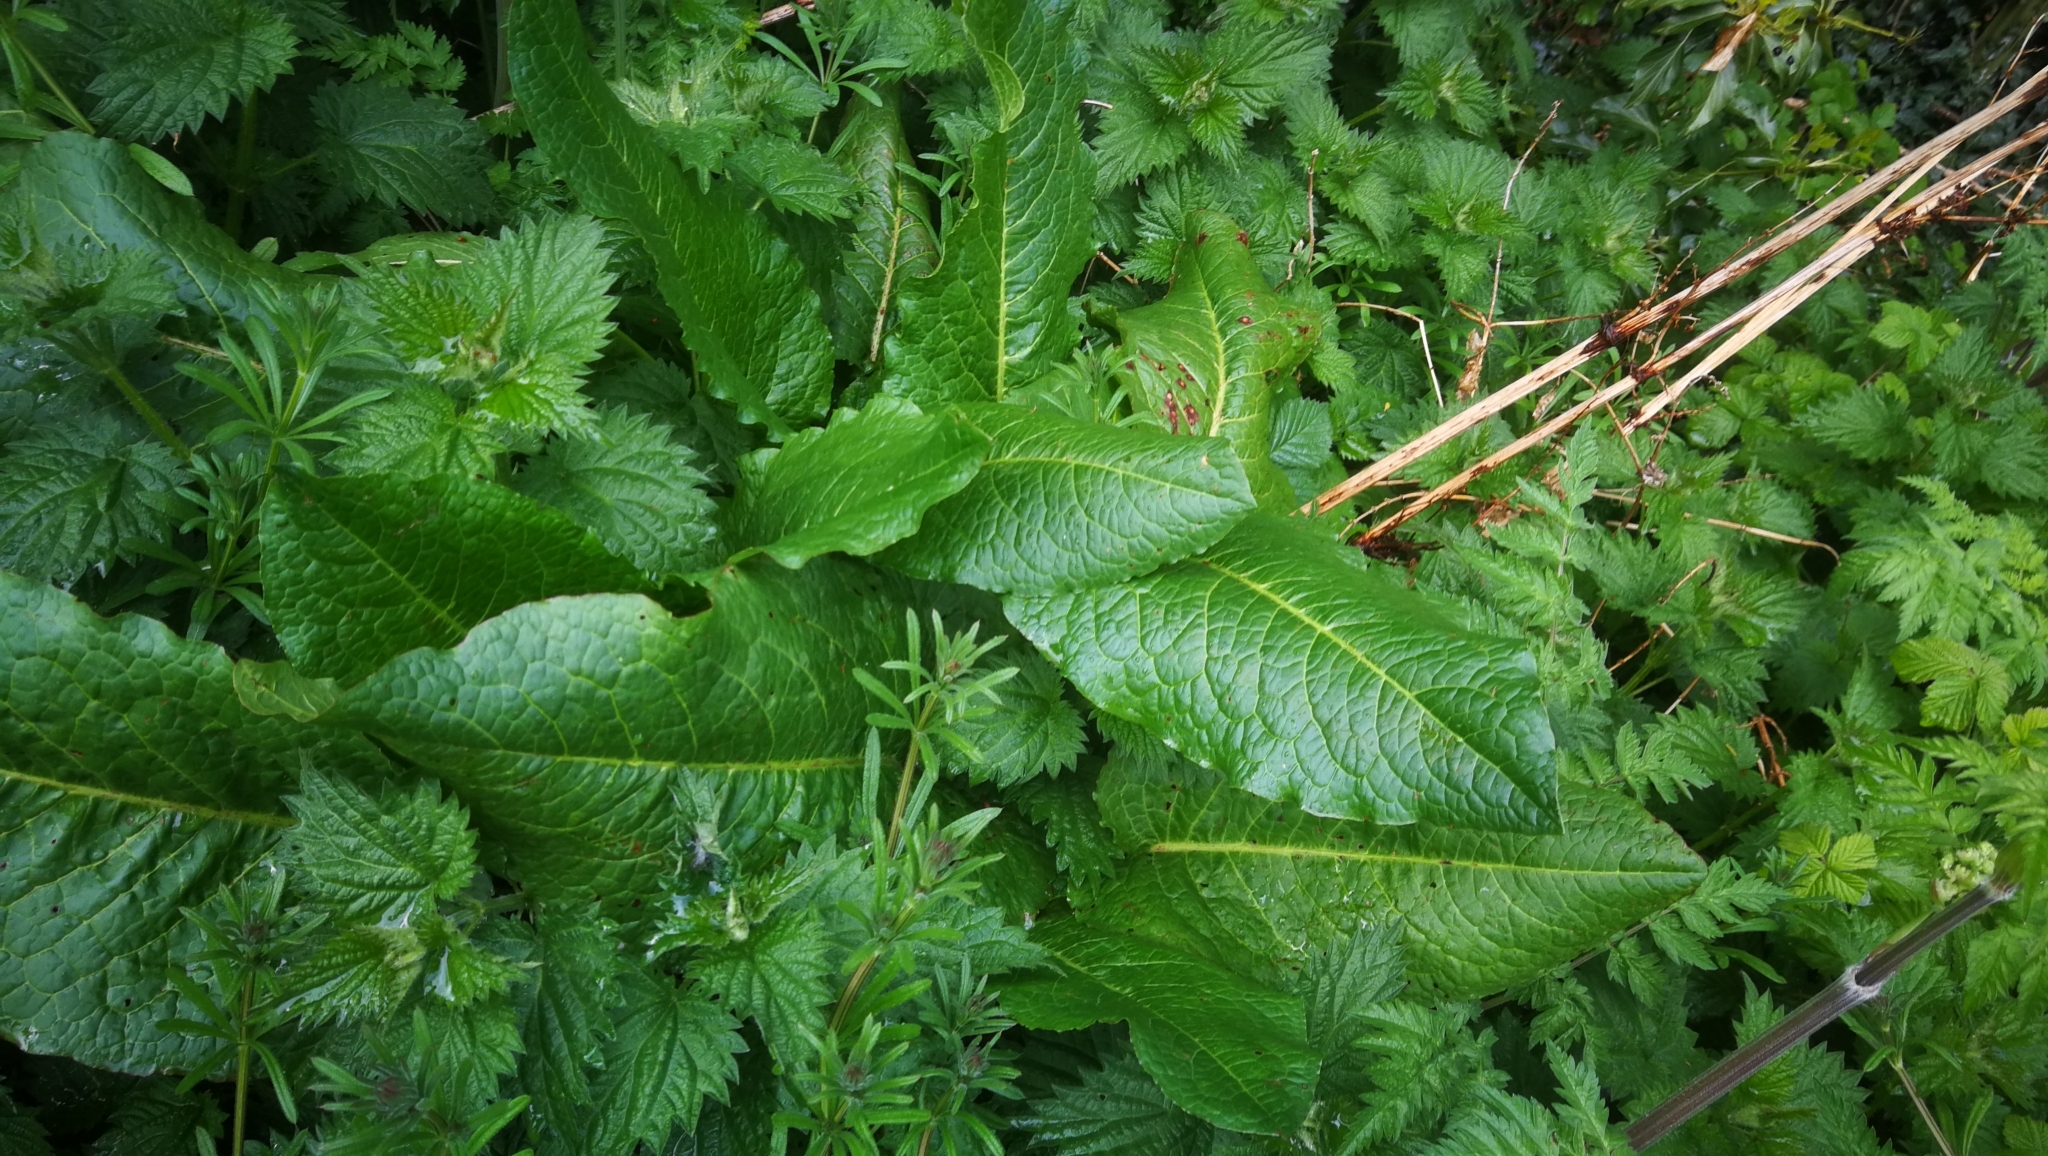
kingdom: Plantae
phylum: Tracheophyta
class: Magnoliopsida
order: Caryophyllales
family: Polygonaceae
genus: Rumex
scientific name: Rumex obtusifolius
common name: Bitter dock
